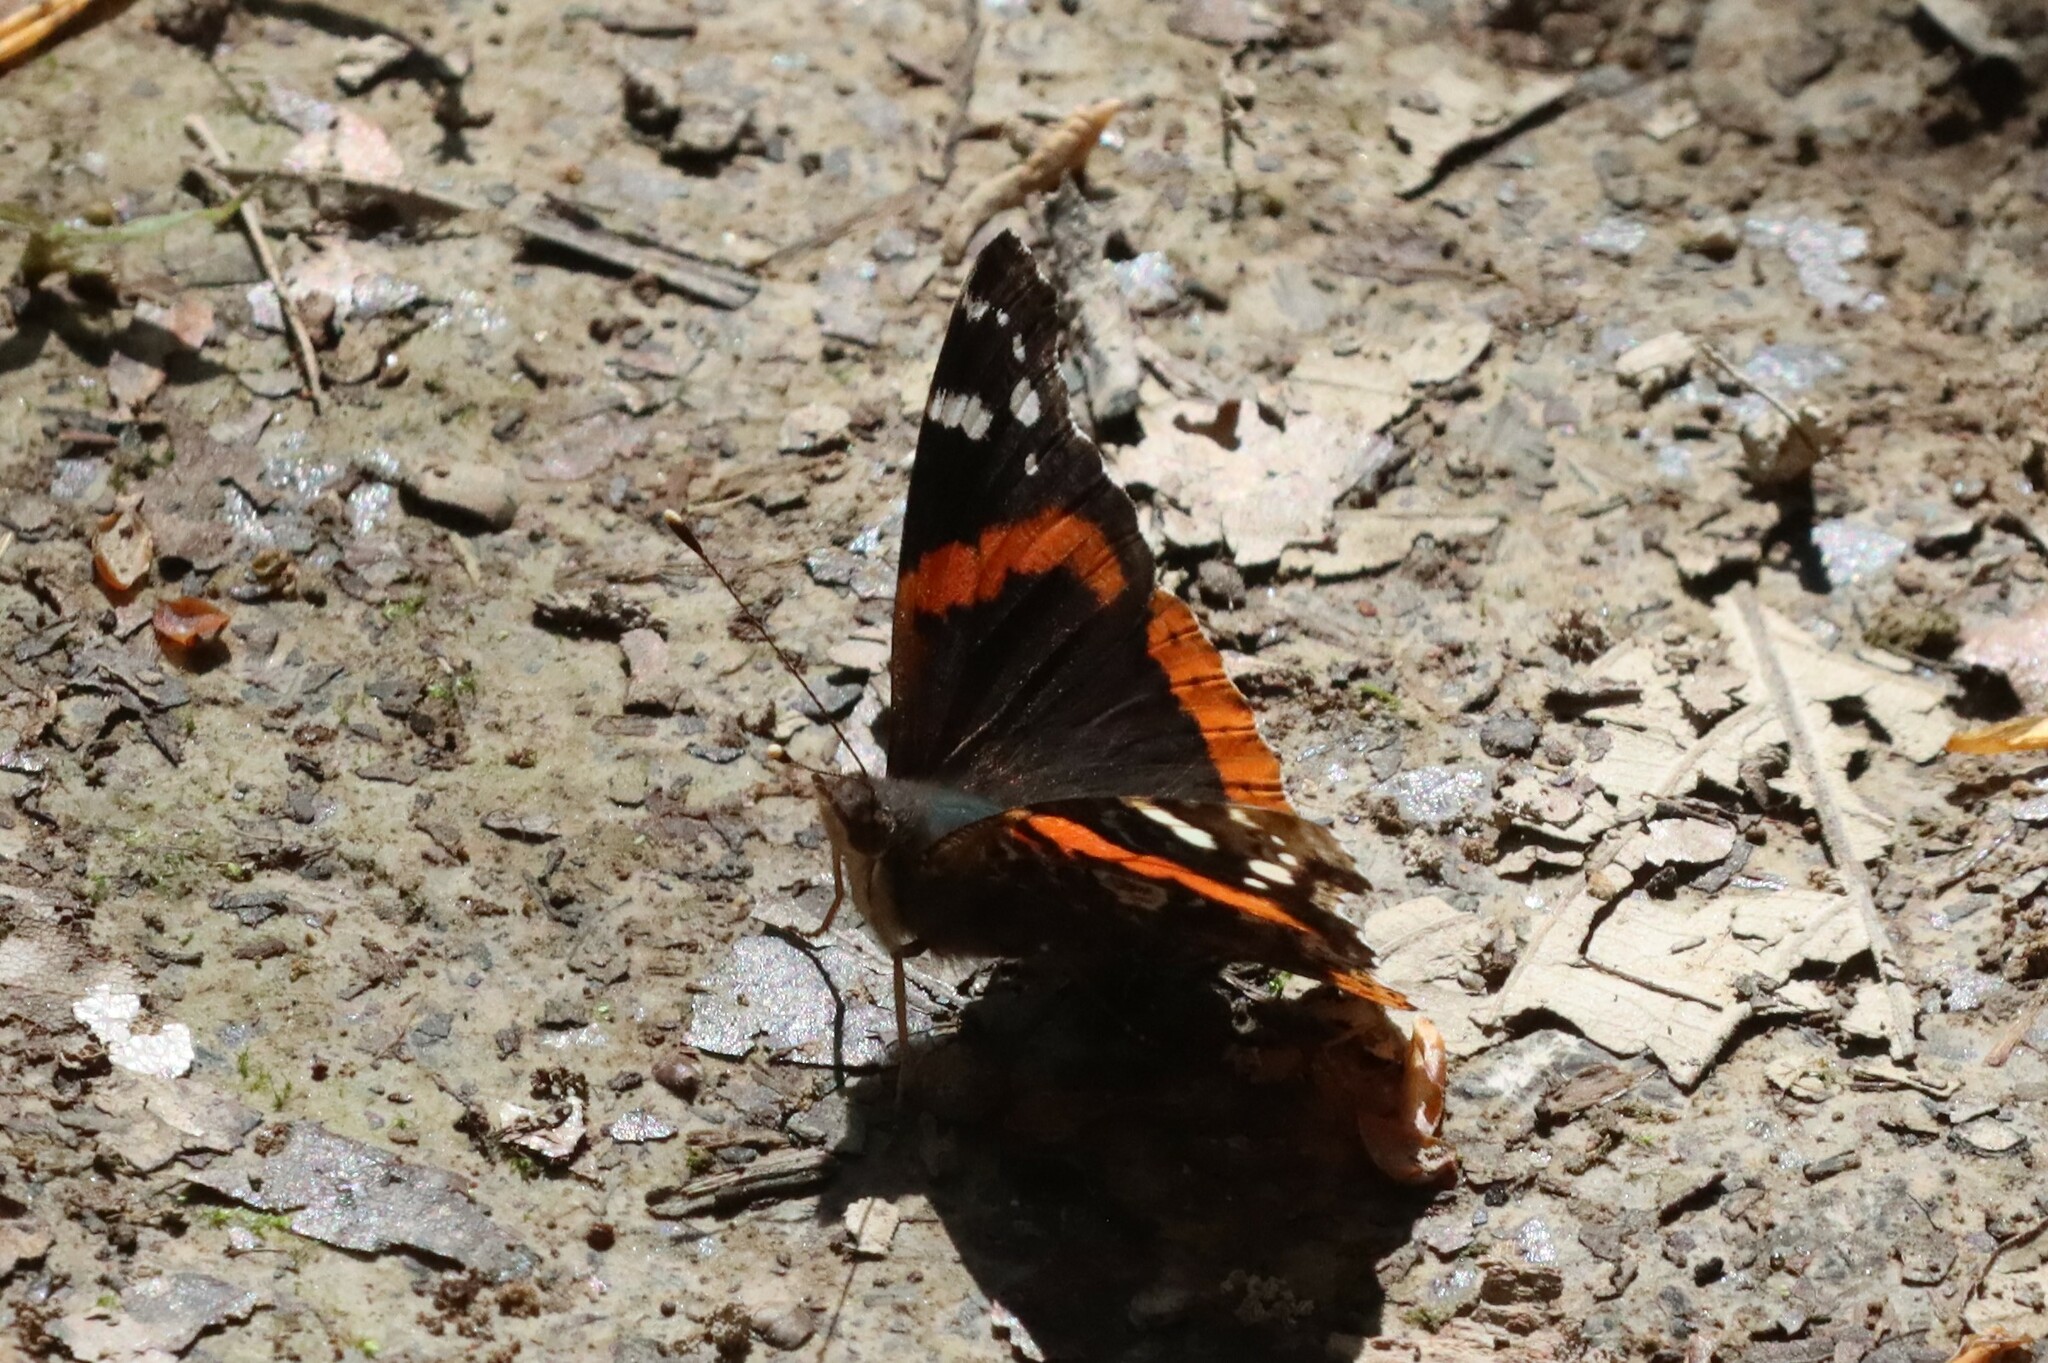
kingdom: Animalia
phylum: Arthropoda
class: Insecta
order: Lepidoptera
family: Nymphalidae
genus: Vanessa
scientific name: Vanessa atalanta
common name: Red admiral
